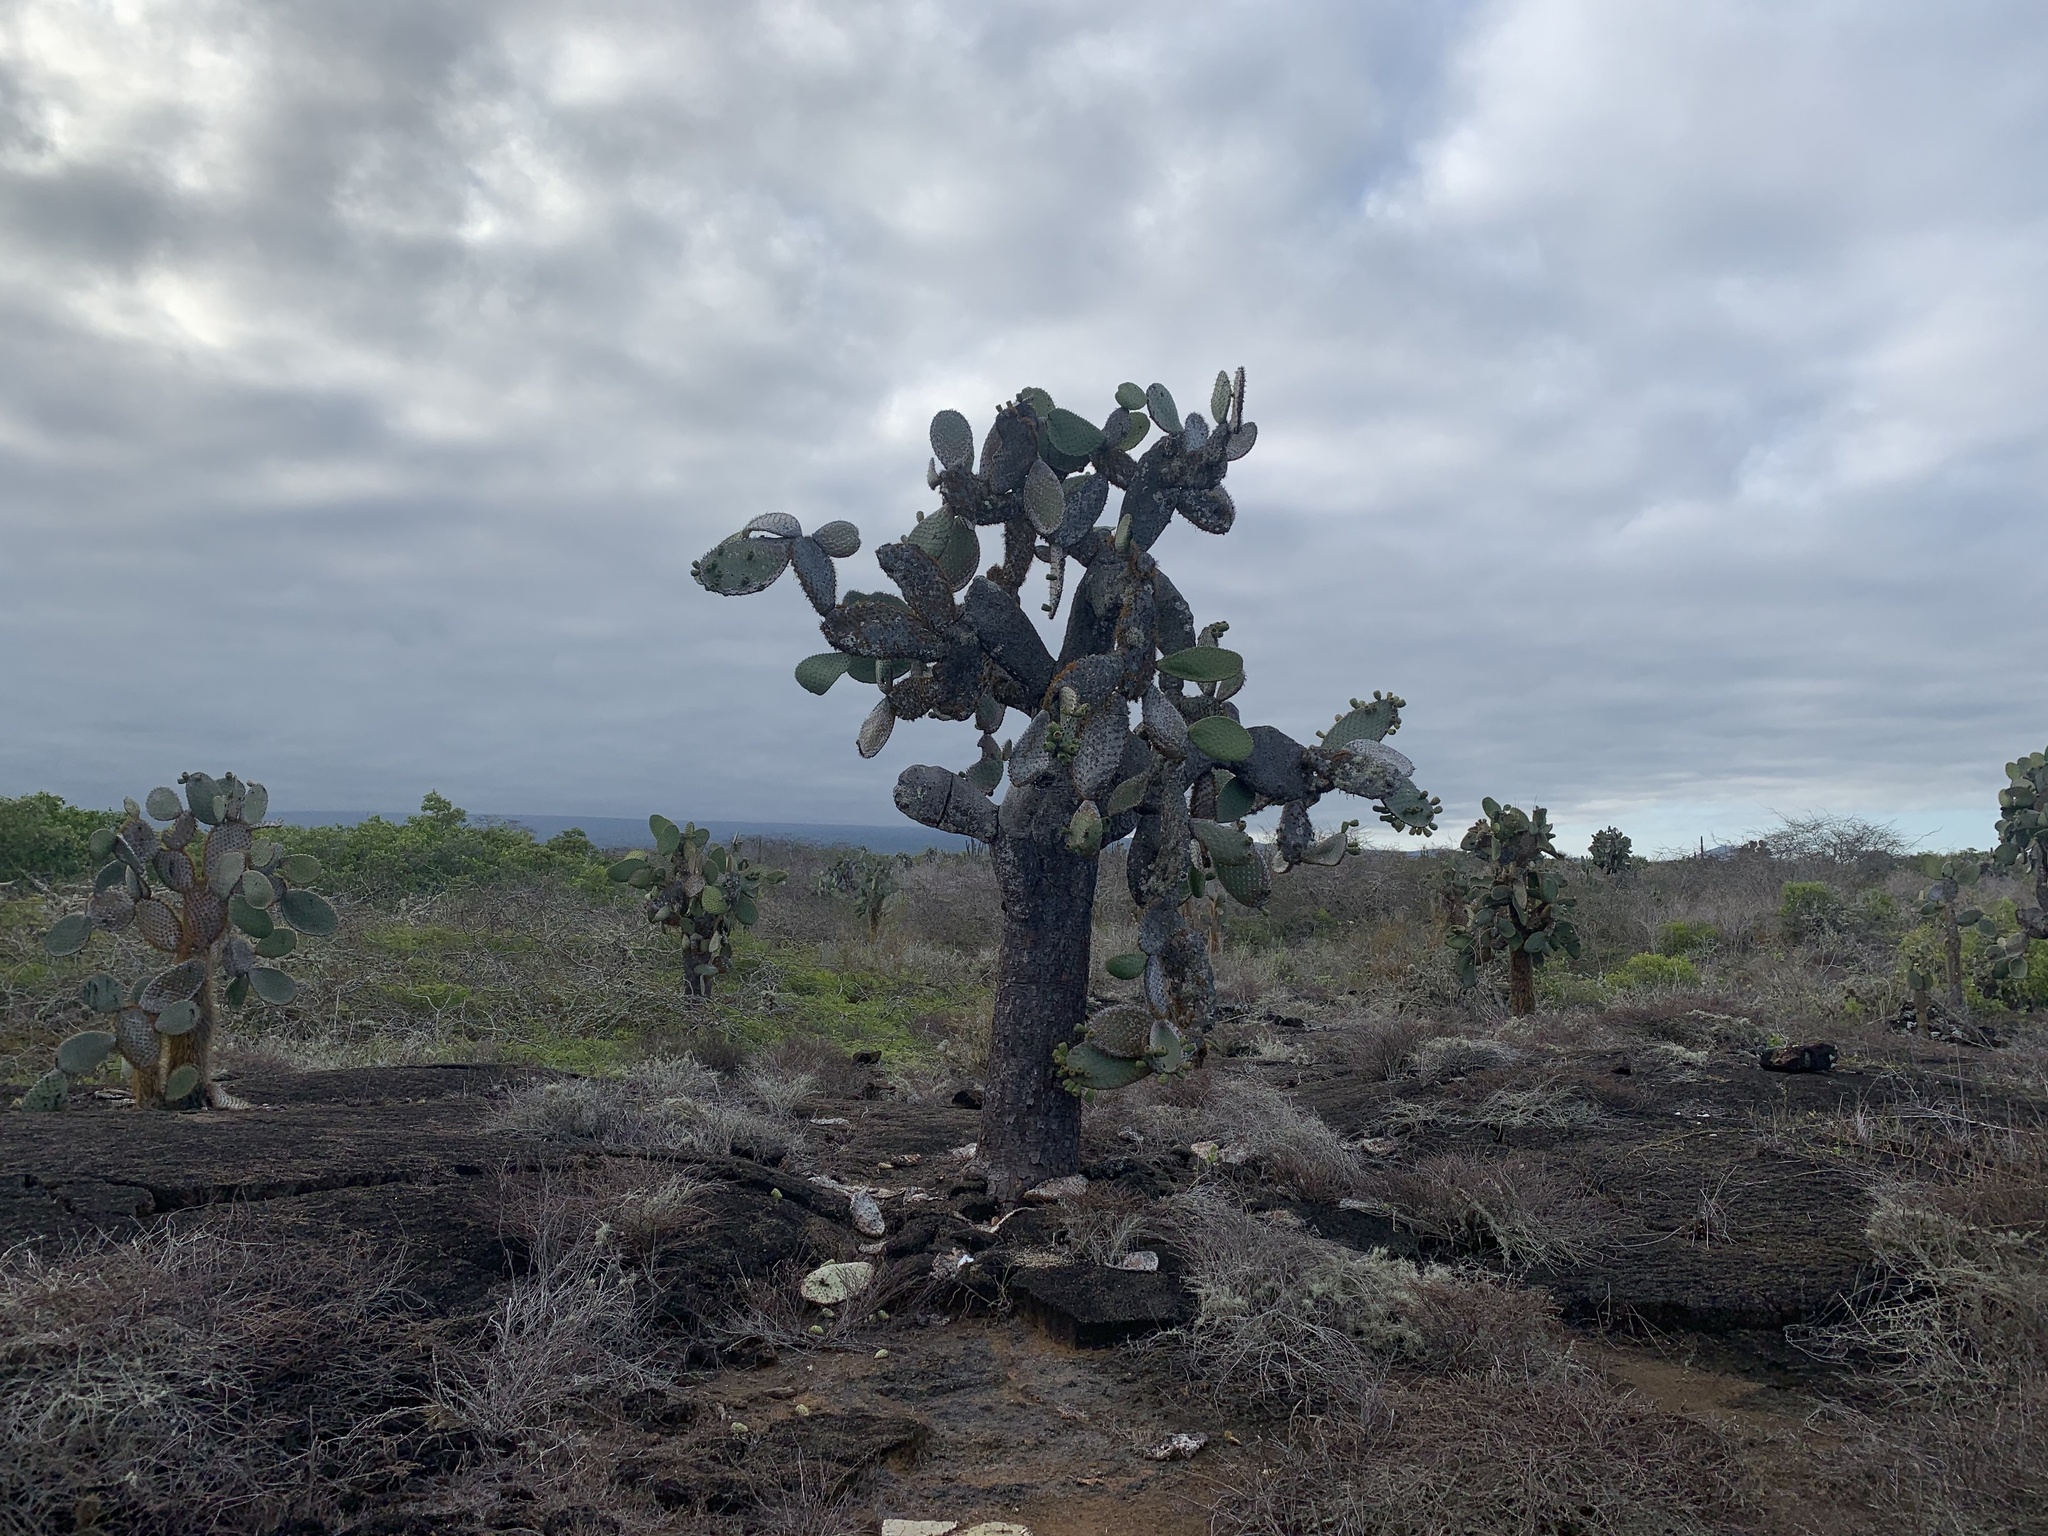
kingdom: Plantae
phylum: Tracheophyta
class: Magnoliopsida
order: Caryophyllales
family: Cactaceae
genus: Opuntia
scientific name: Opuntia galapageia
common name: Galápagos prickly pear
